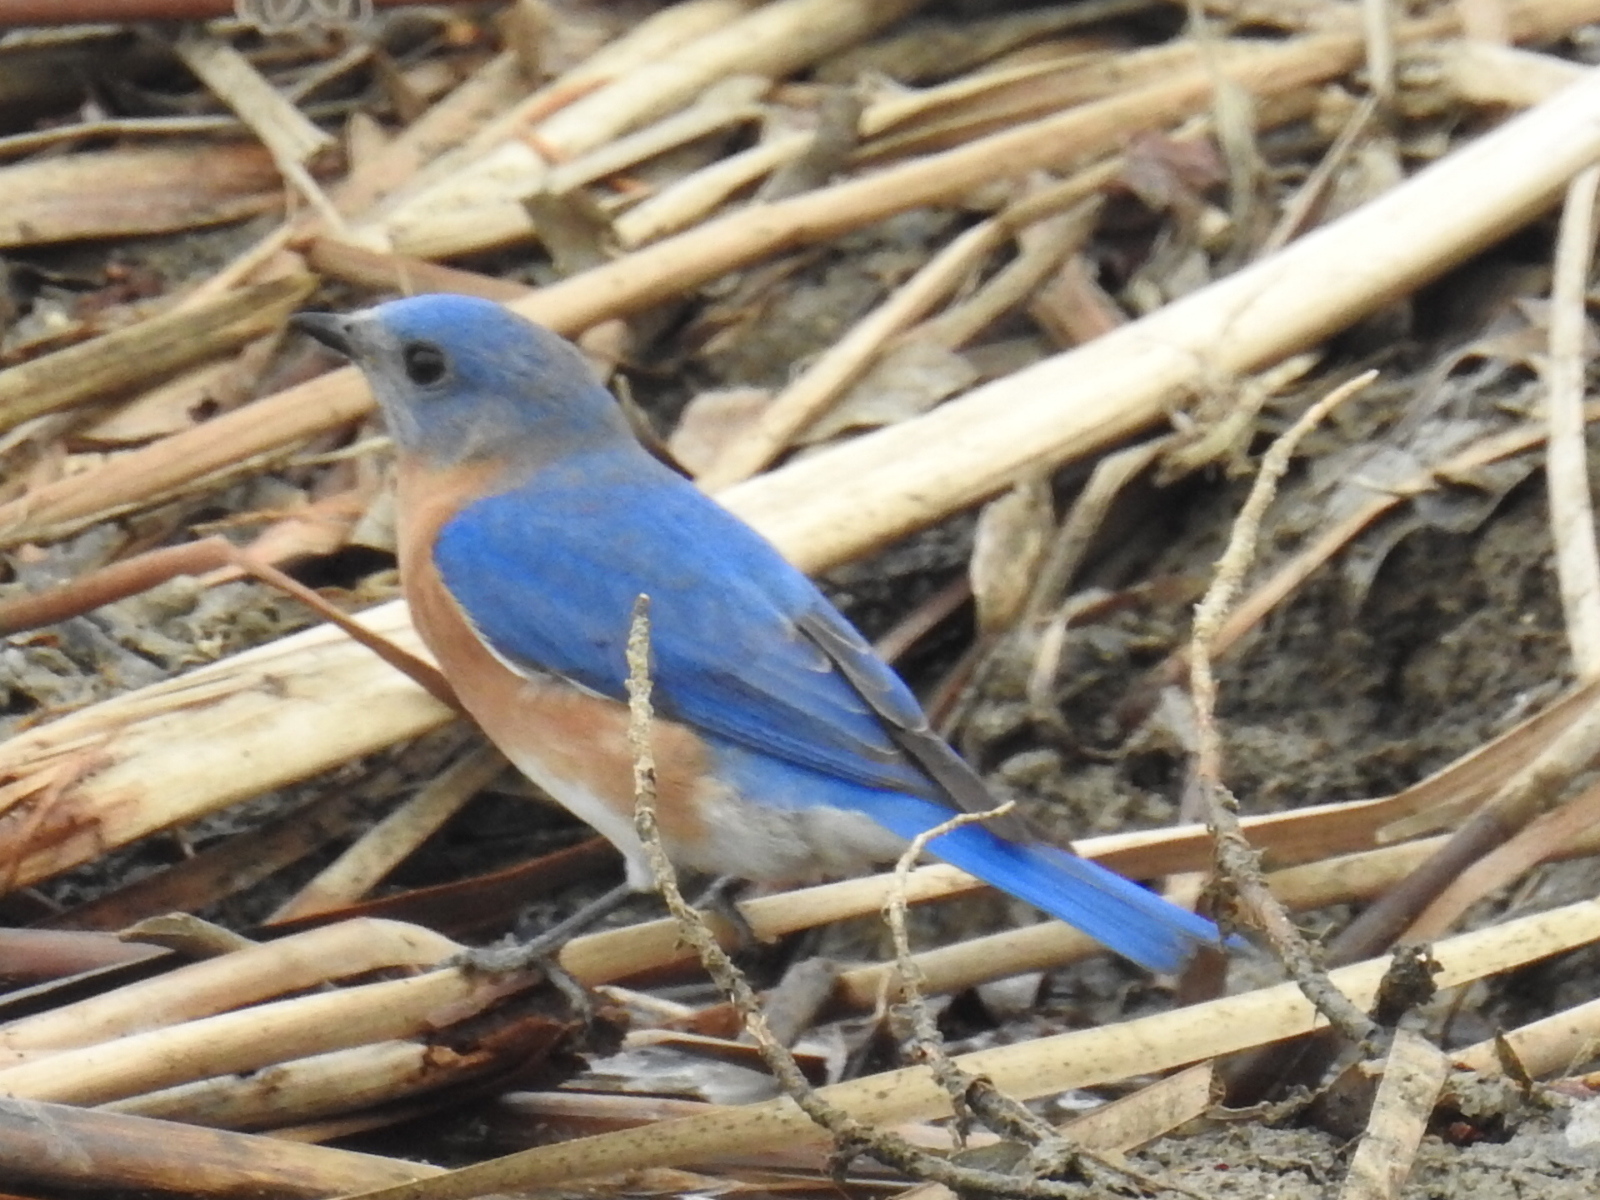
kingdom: Animalia
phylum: Chordata
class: Aves
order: Passeriformes
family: Turdidae
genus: Sialia
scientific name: Sialia sialis
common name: Eastern bluebird
